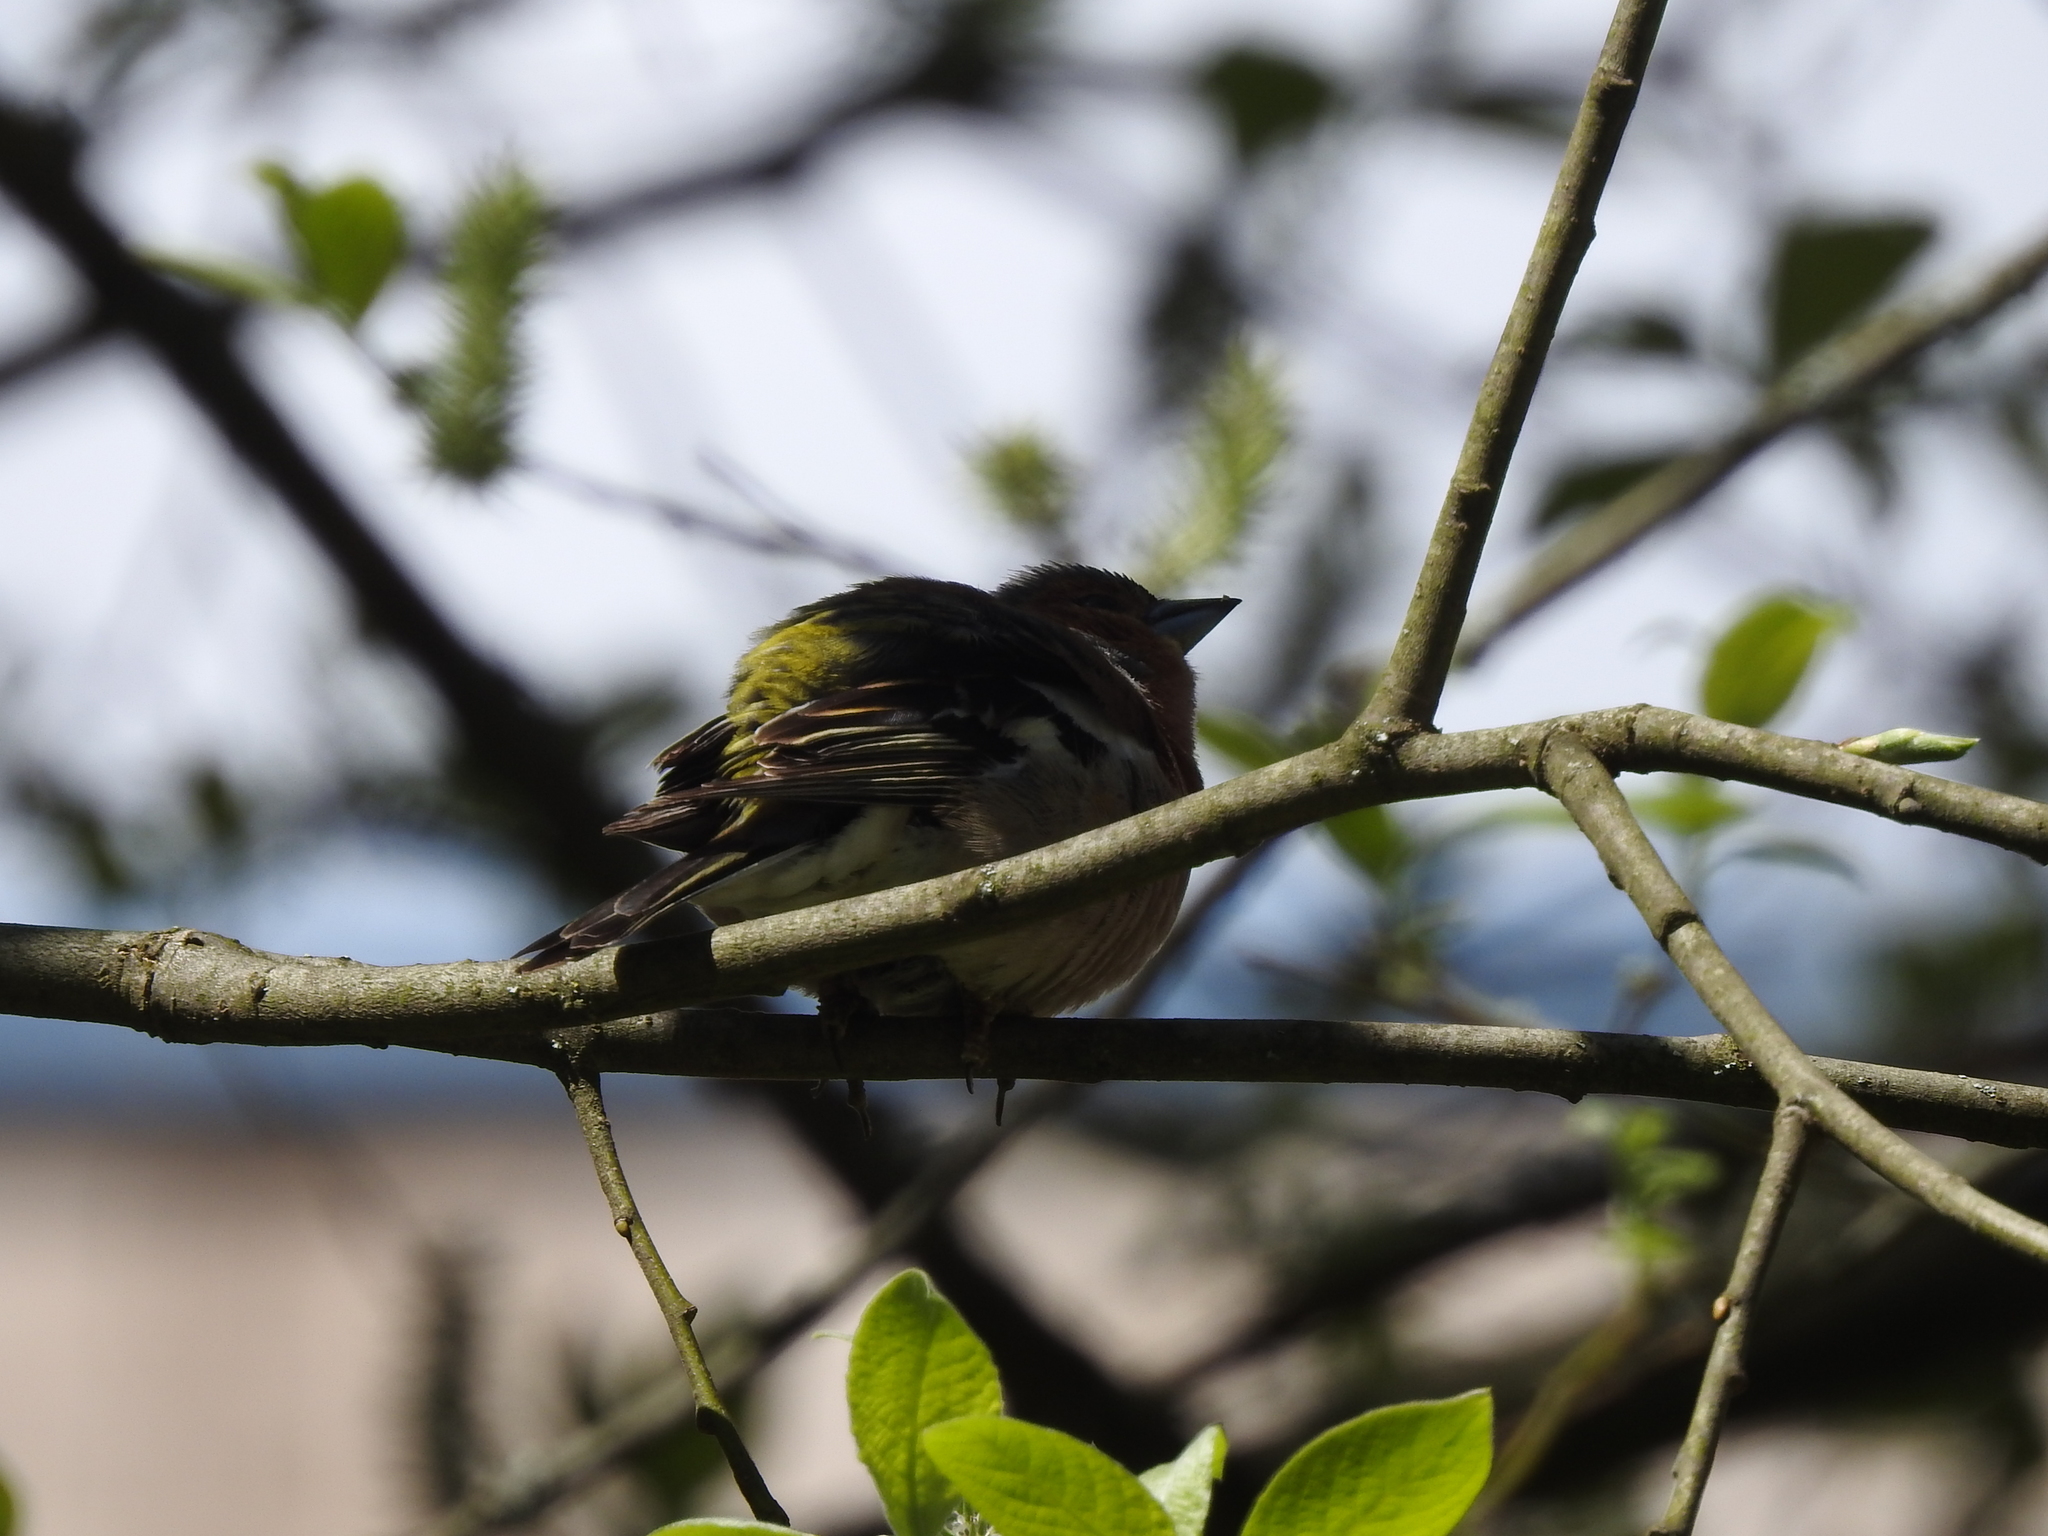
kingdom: Animalia
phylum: Chordata
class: Aves
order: Passeriformes
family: Fringillidae
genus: Fringilla
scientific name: Fringilla coelebs
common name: Common chaffinch
